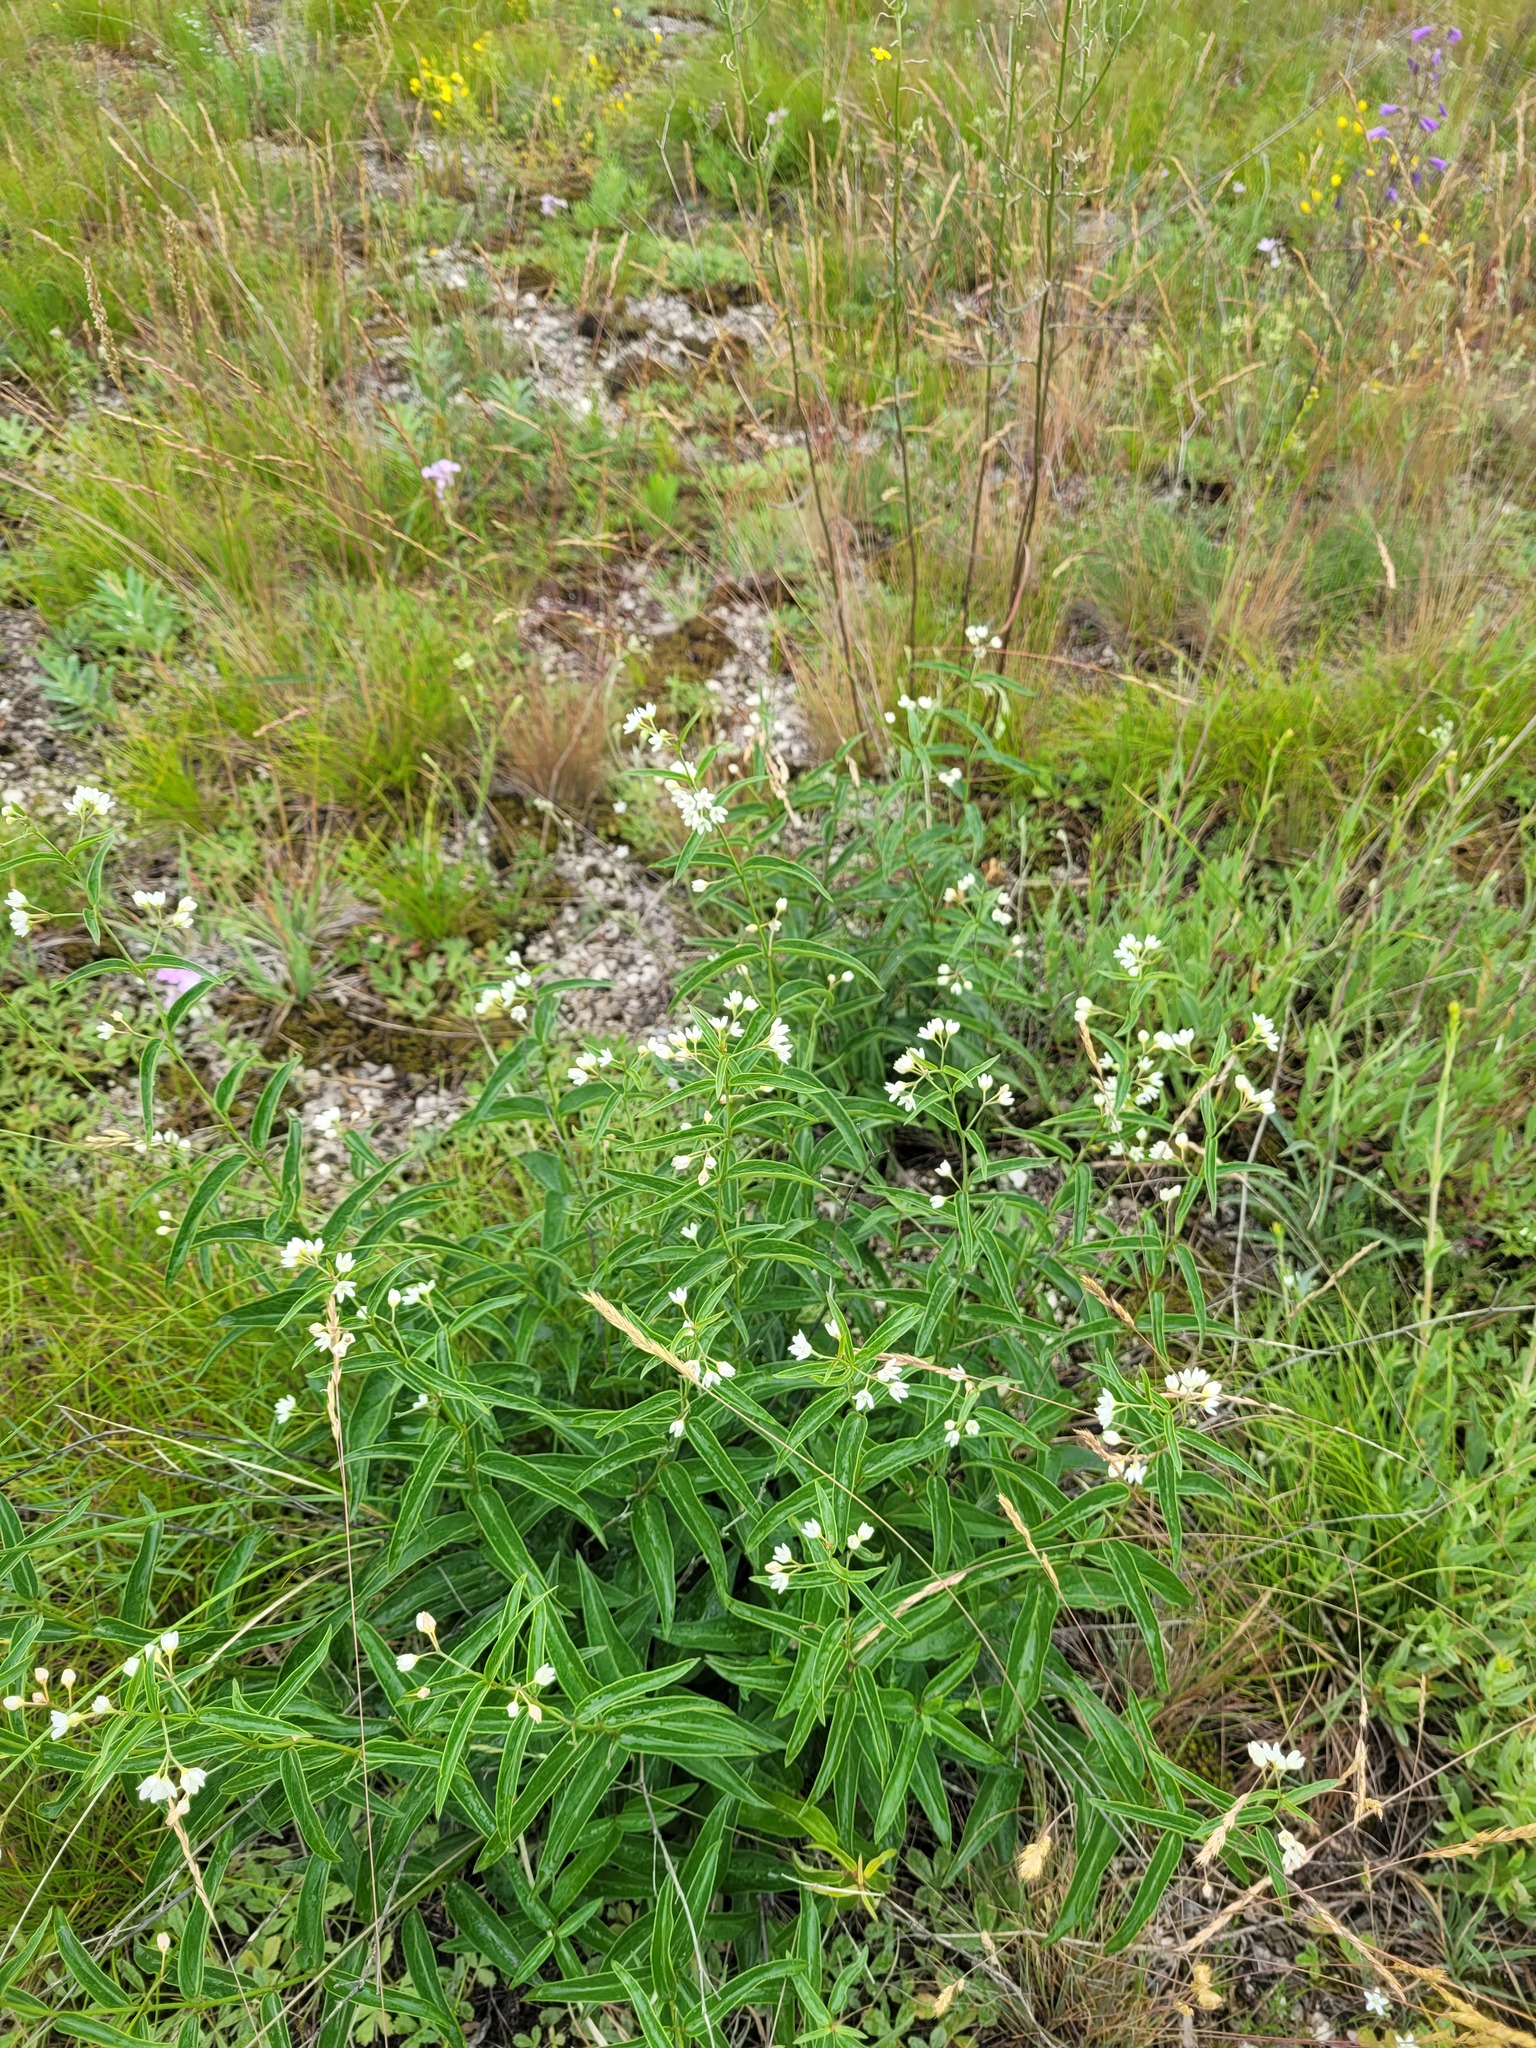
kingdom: Plantae
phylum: Tracheophyta
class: Magnoliopsida
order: Gentianales
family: Apocynaceae
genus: Vincetoxicum
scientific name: Vincetoxicum hirundinaria
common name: White swallowwort
